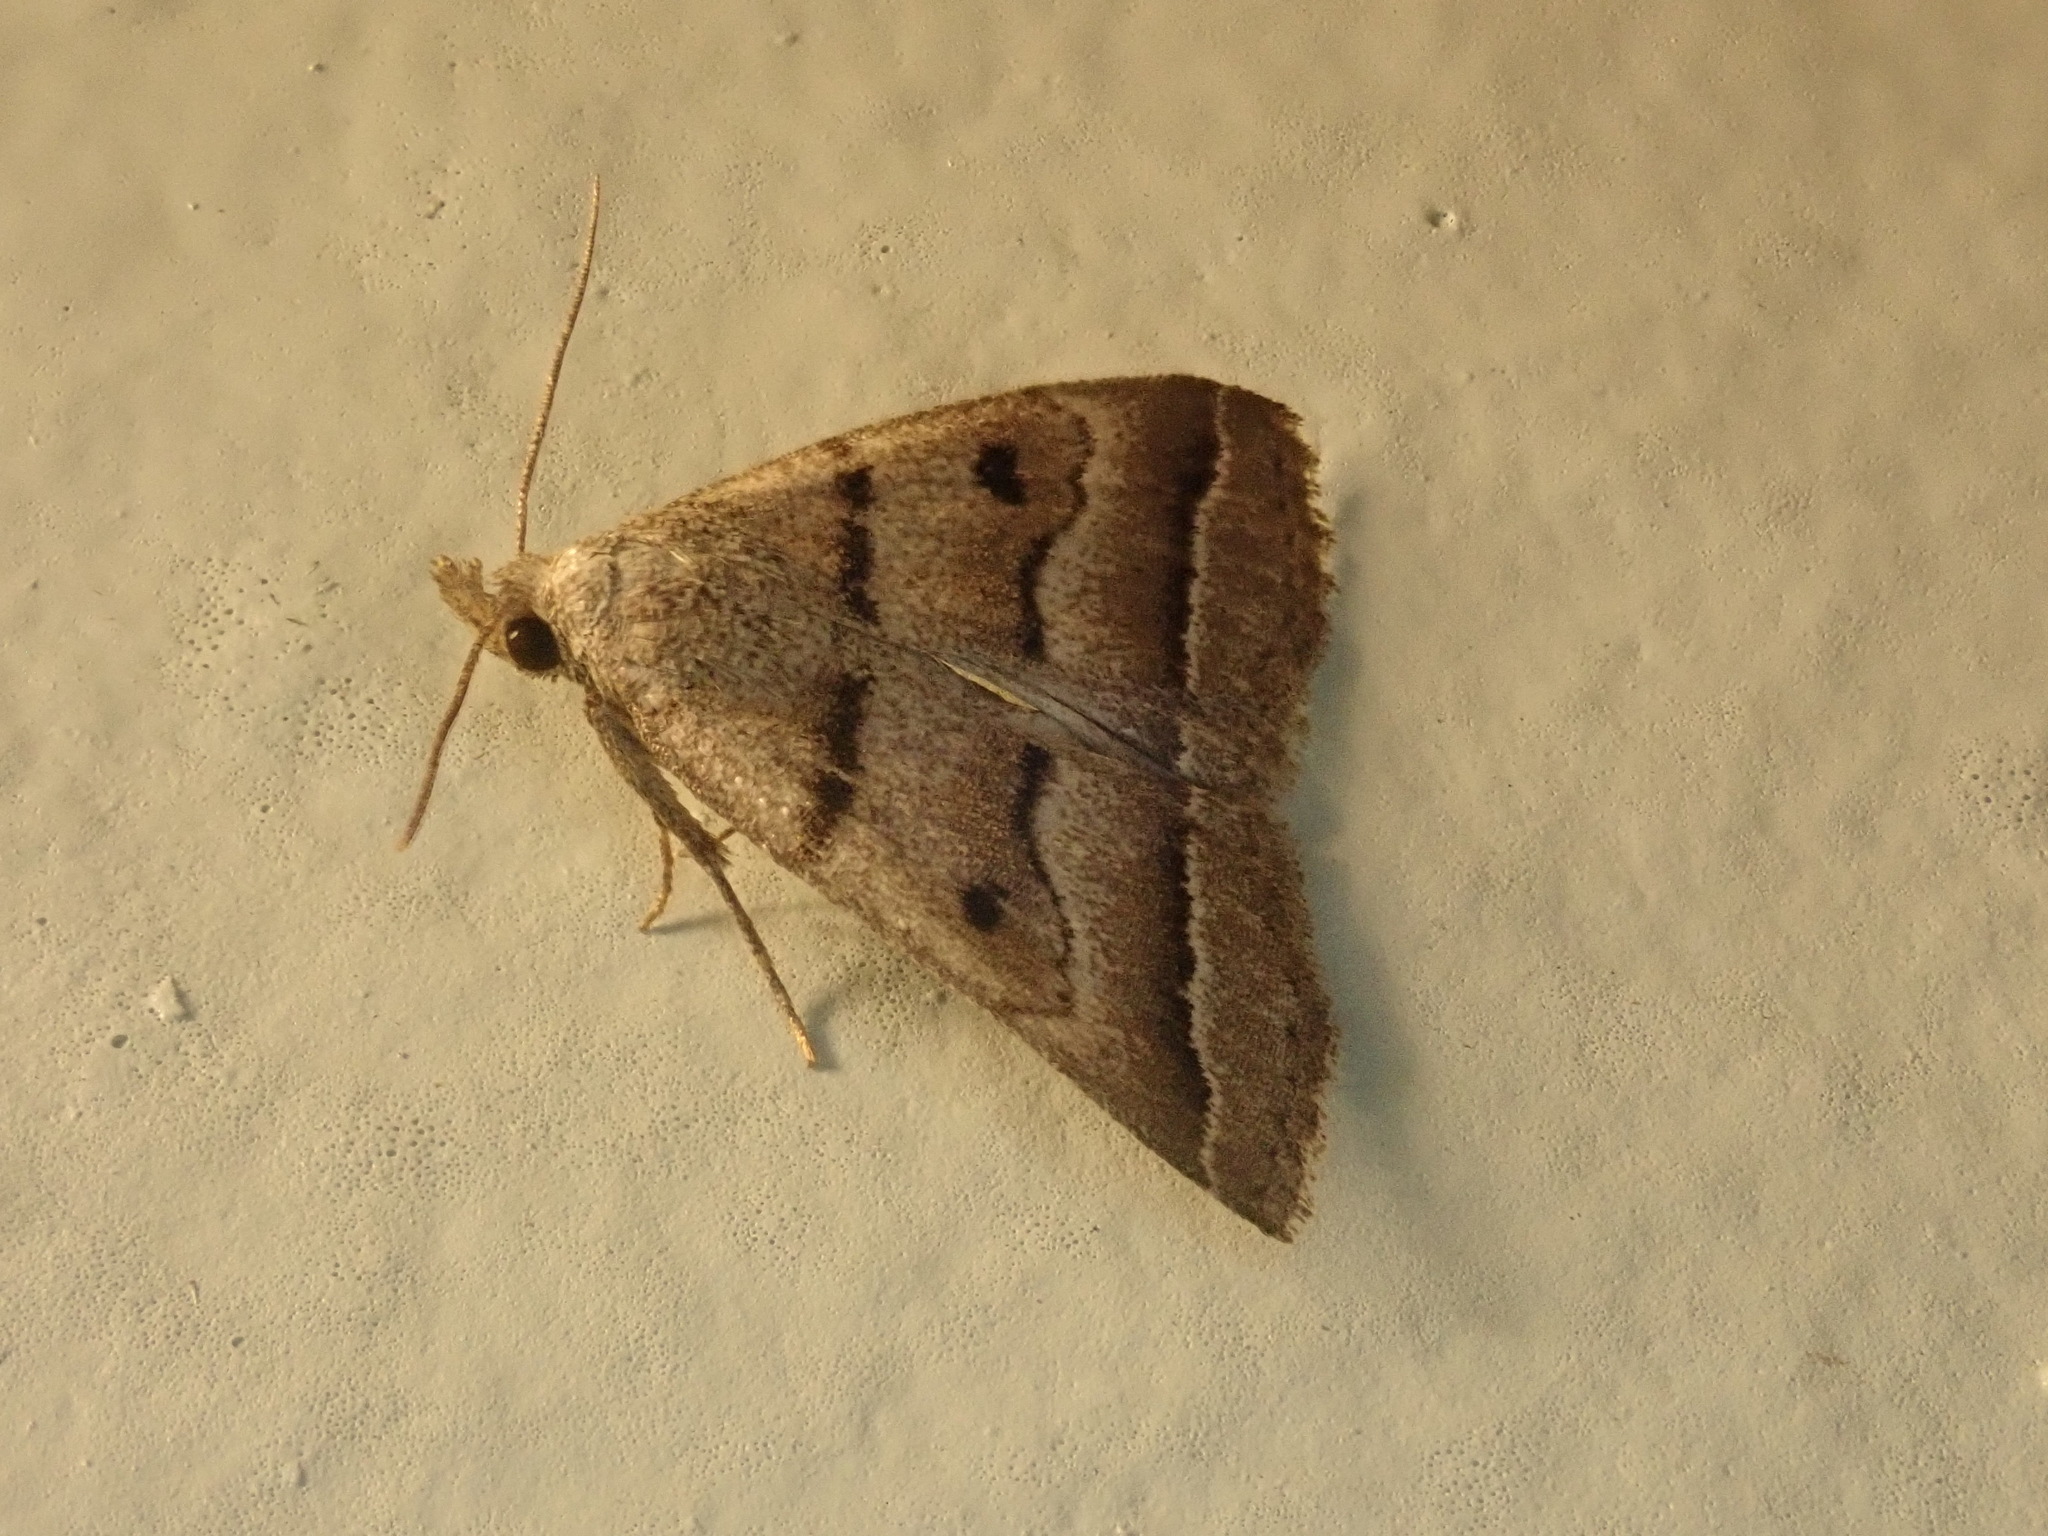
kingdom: Animalia
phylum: Arthropoda
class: Insecta
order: Lepidoptera
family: Erebidae
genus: Zanclognatha
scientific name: Zanclognatha atrilineella
